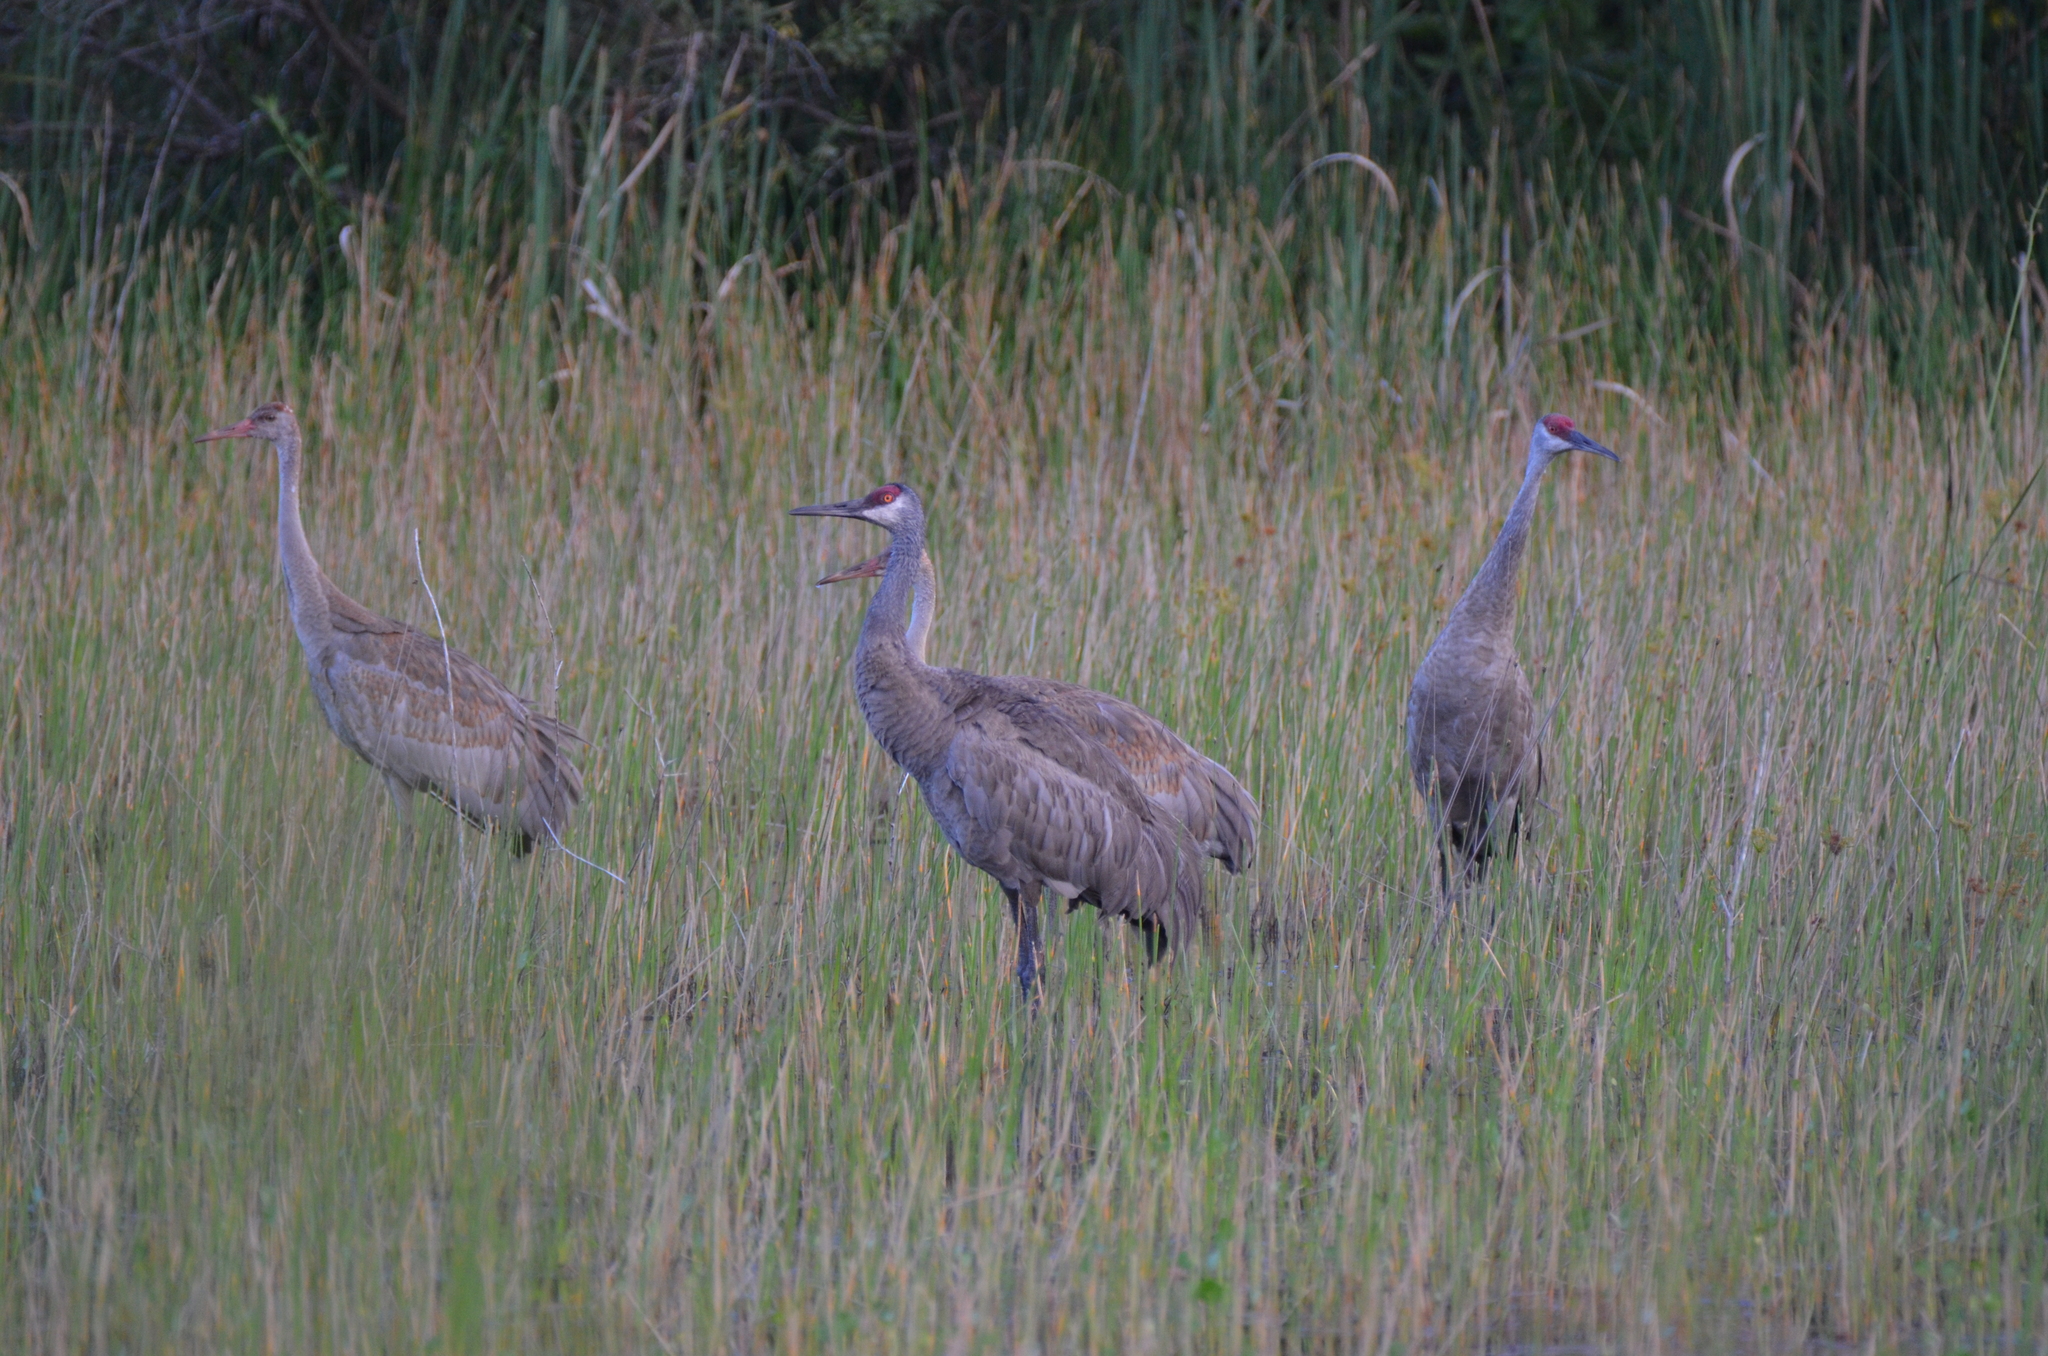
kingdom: Animalia
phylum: Chordata
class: Aves
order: Gruiformes
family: Gruidae
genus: Grus
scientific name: Grus canadensis
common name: Sandhill crane
